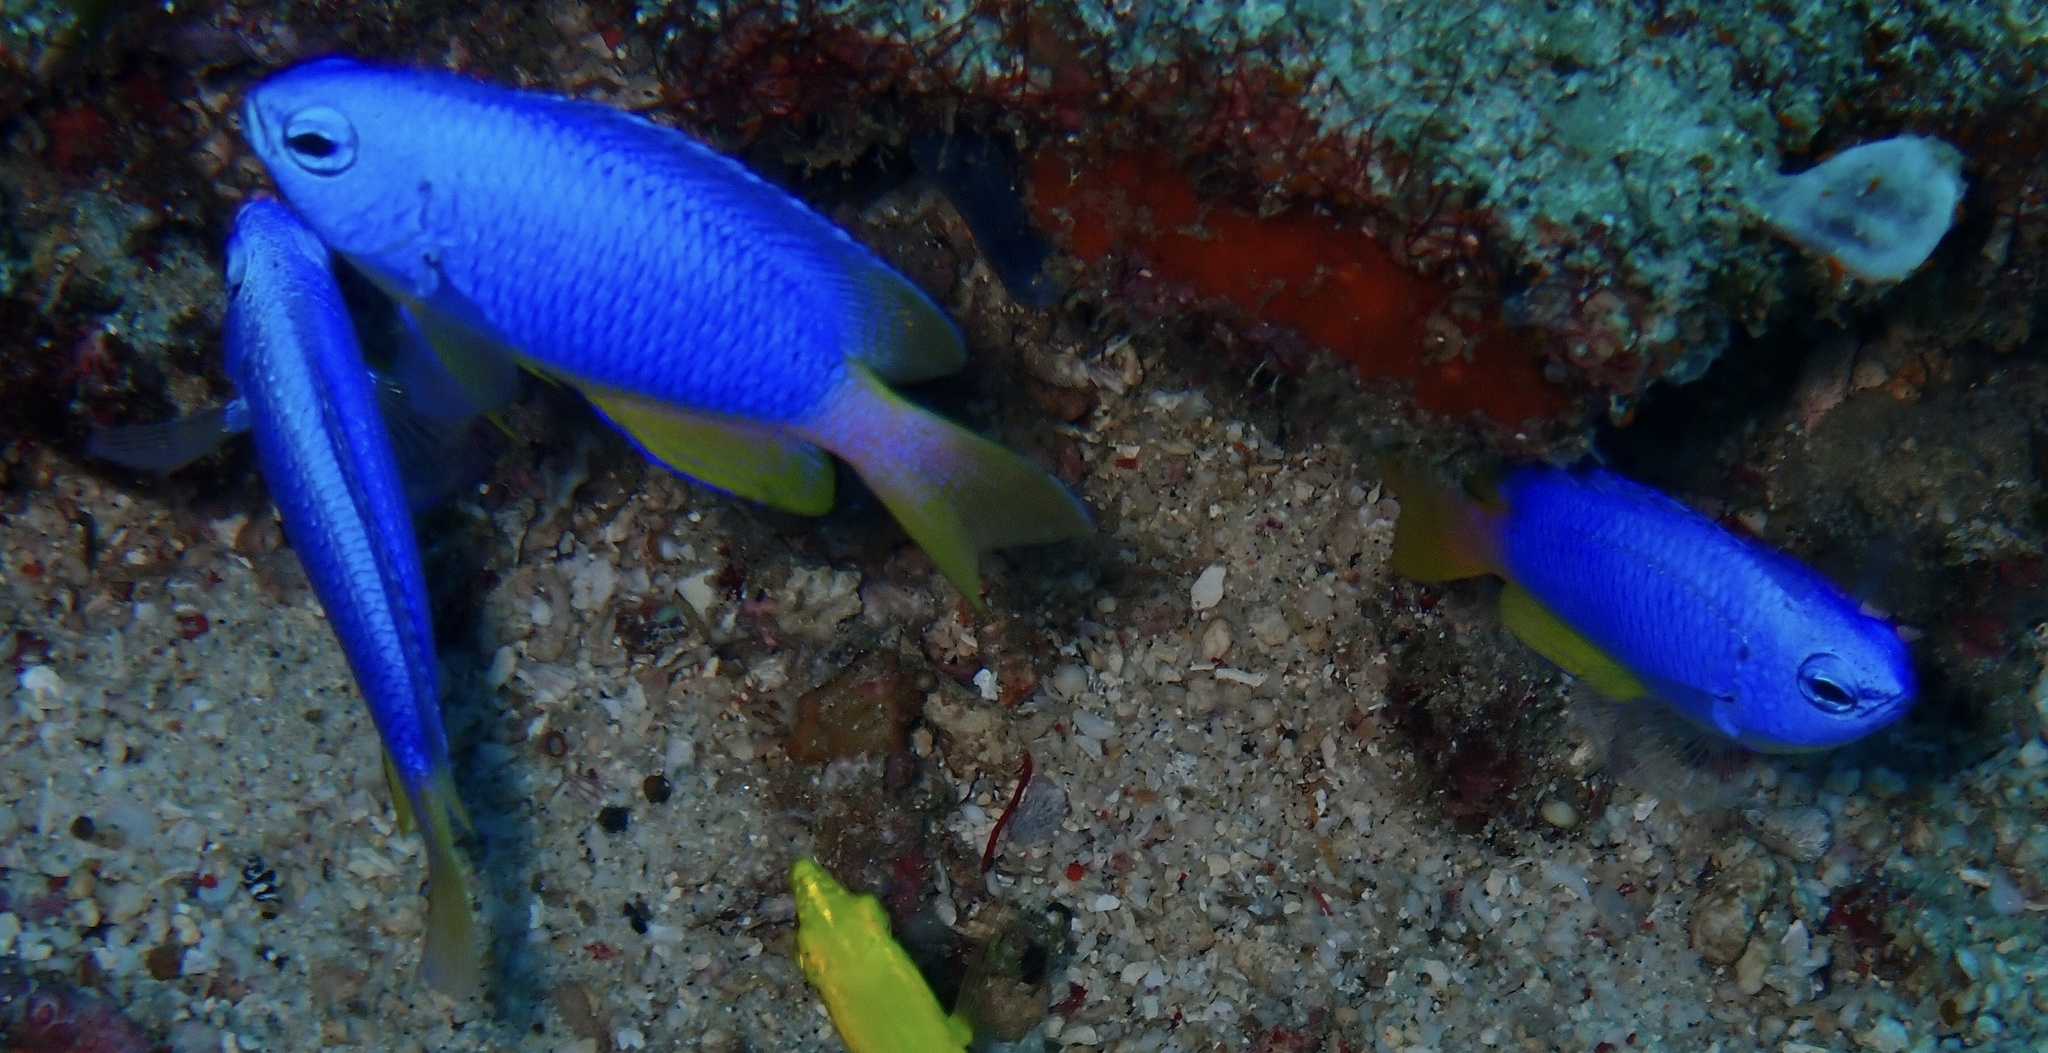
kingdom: Animalia
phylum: Chordata
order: Perciformes
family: Pomacentridae
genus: Pomacentrus
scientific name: Pomacentrus coelestis
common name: Neon damsel
